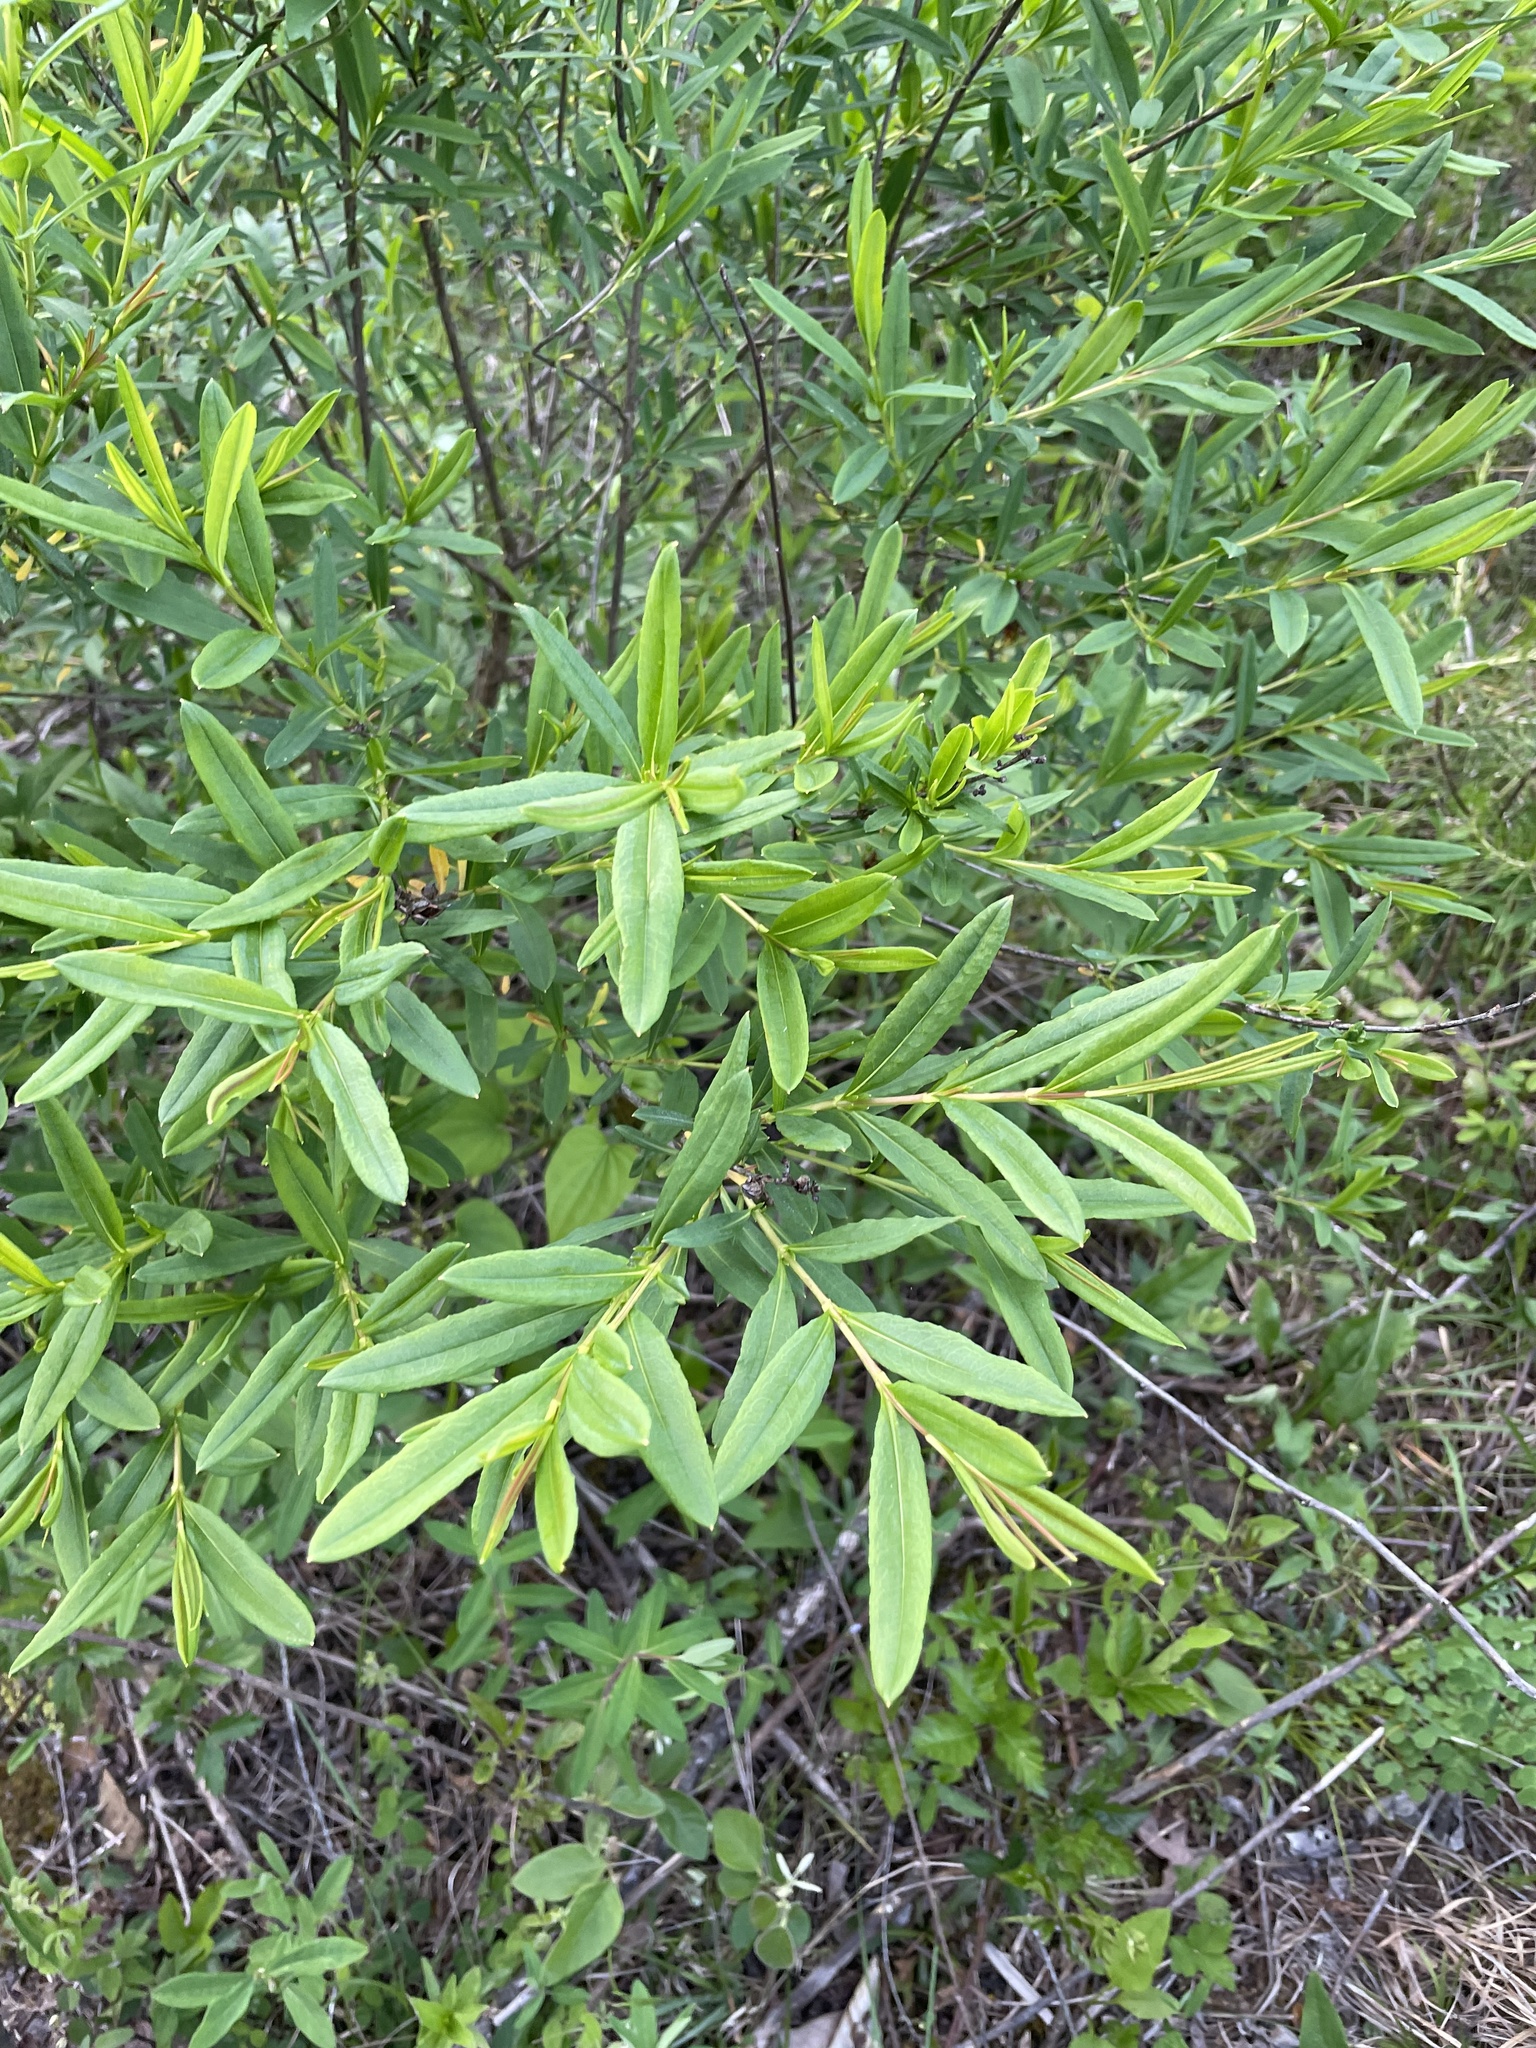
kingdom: Plantae
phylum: Tracheophyta
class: Magnoliopsida
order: Malpighiales
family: Hypericaceae
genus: Hypericum
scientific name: Hypericum prolificum
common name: Shrubby st. john's-wort
